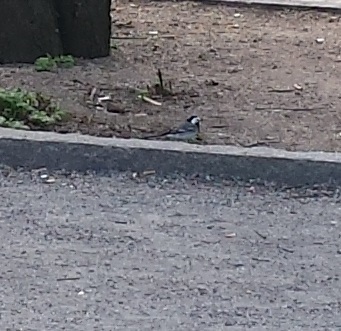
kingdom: Animalia
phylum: Chordata
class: Aves
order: Passeriformes
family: Motacillidae
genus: Motacilla
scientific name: Motacilla alba
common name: White wagtail
